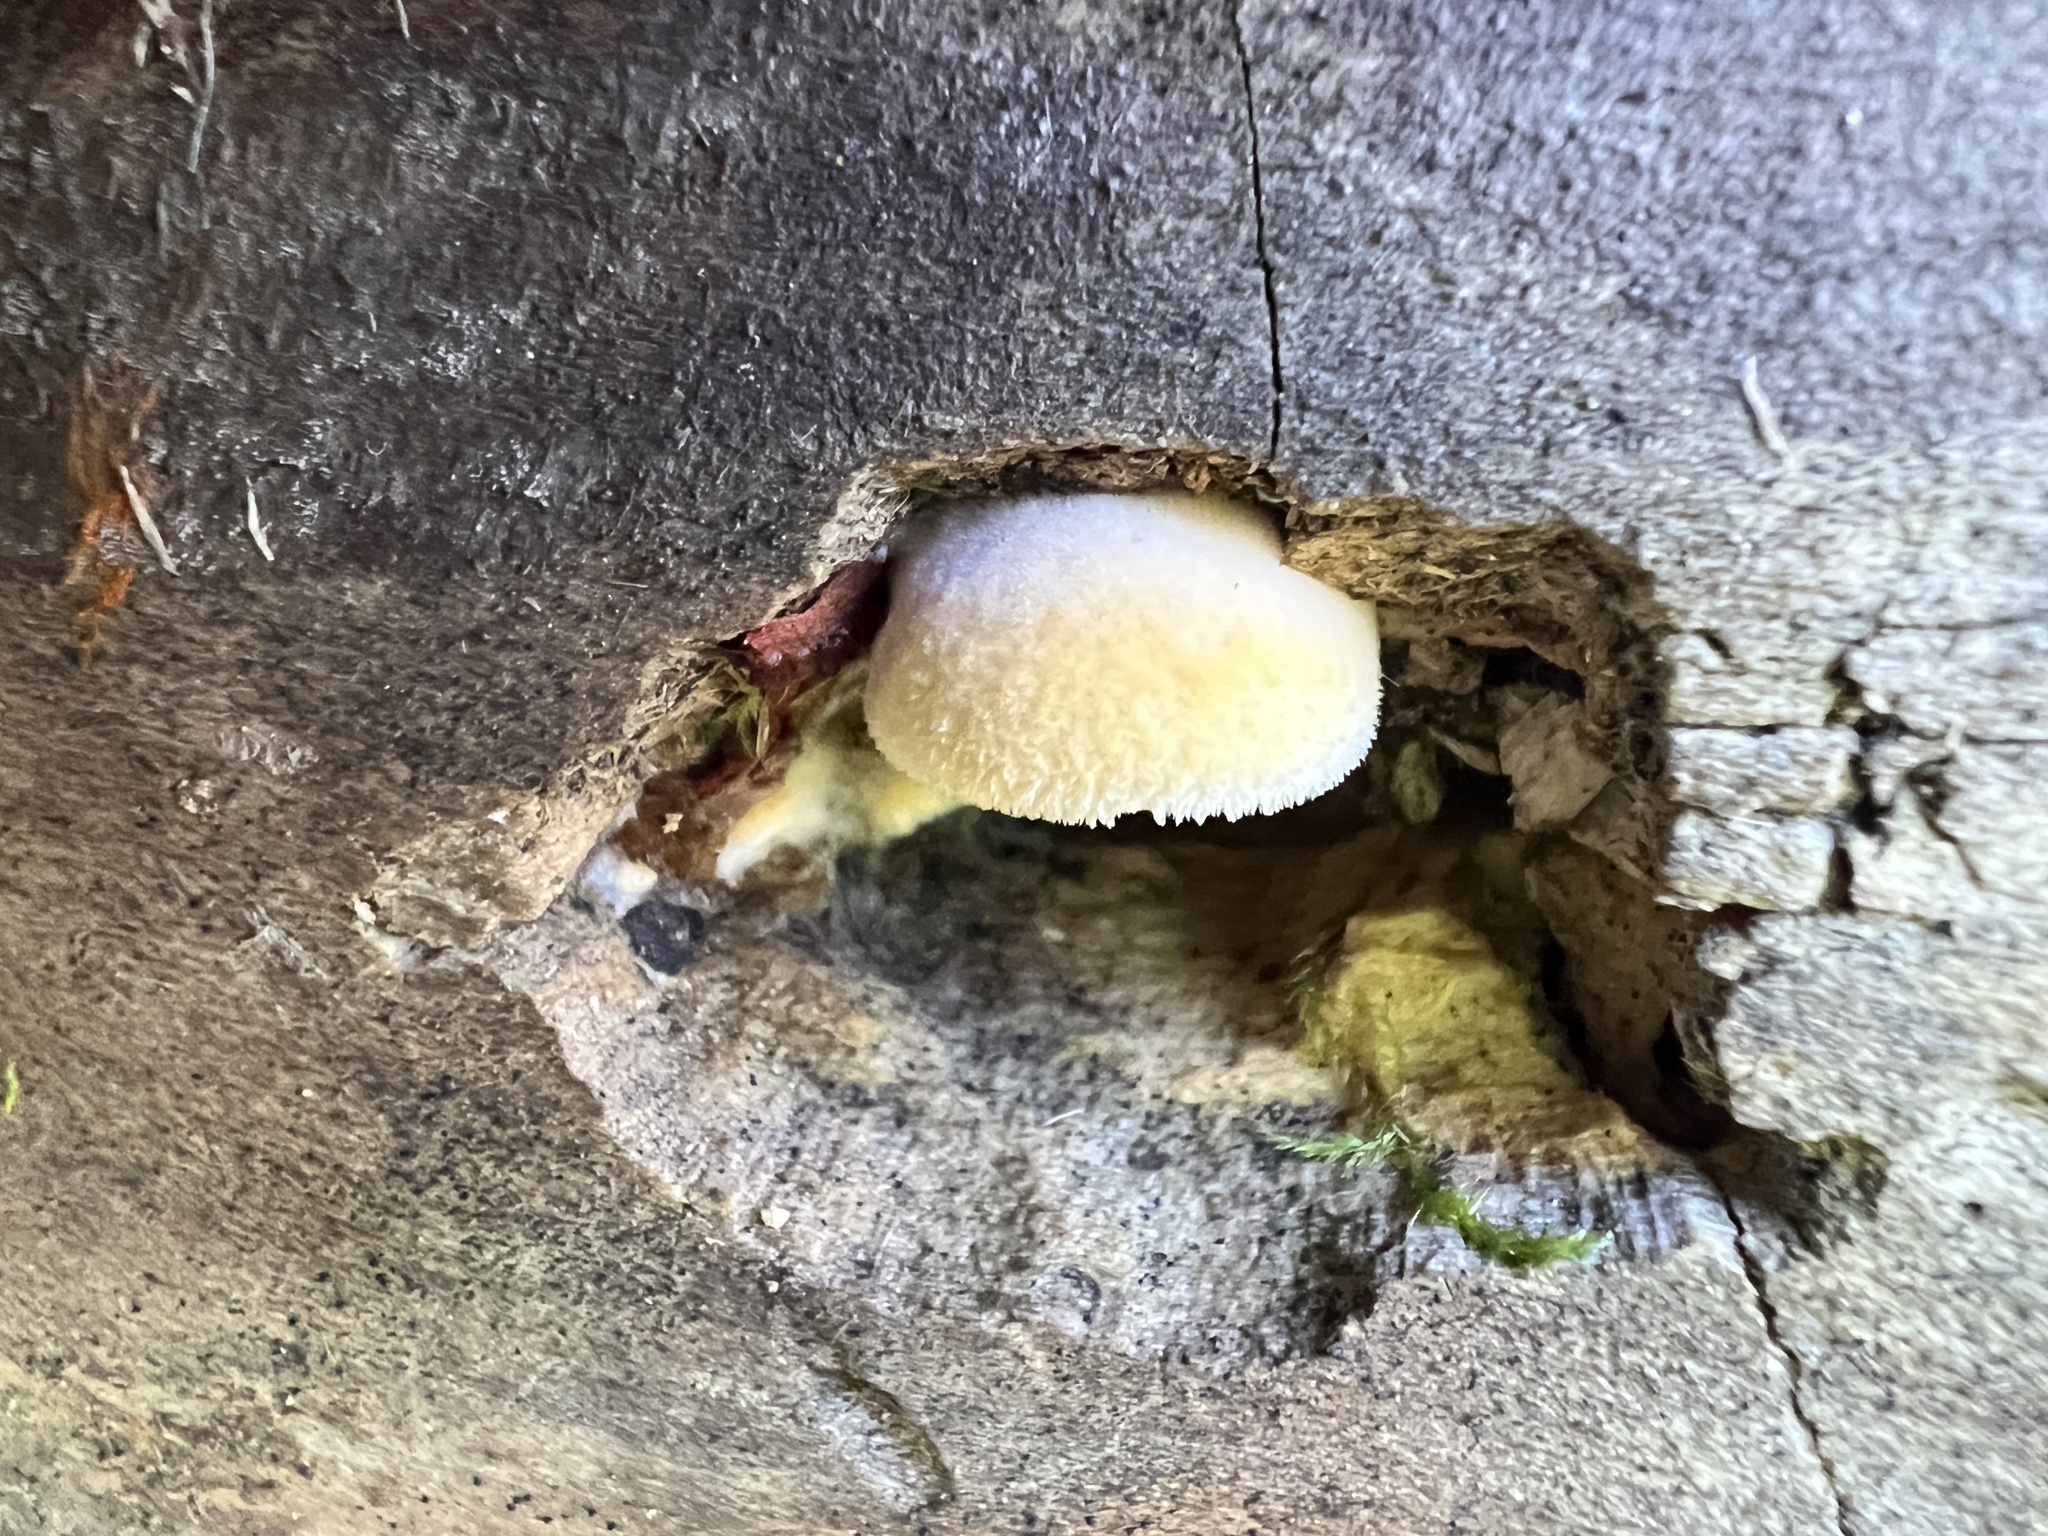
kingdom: Fungi
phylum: Basidiomycota
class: Agaricomycetes
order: Agaricales
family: Phyllotopsidaceae
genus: Phyllotopsis
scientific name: Phyllotopsis nidulans
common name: Orange mock oyster
